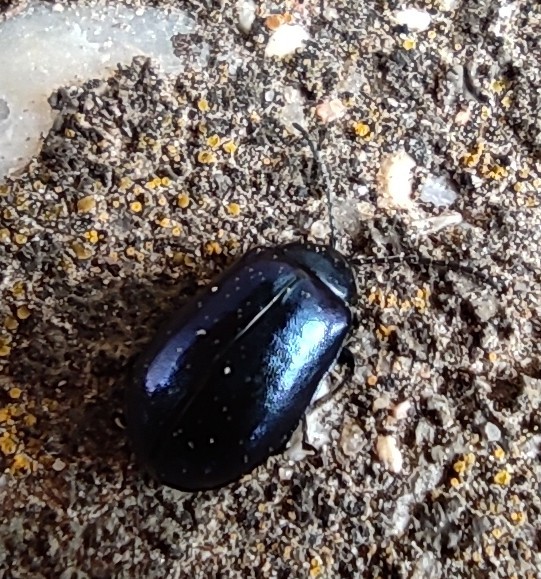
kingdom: Animalia
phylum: Arthropoda
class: Insecta
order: Coleoptera
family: Chrysomelidae
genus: Agelastica
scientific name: Agelastica alni
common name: Alder leaf beetle
